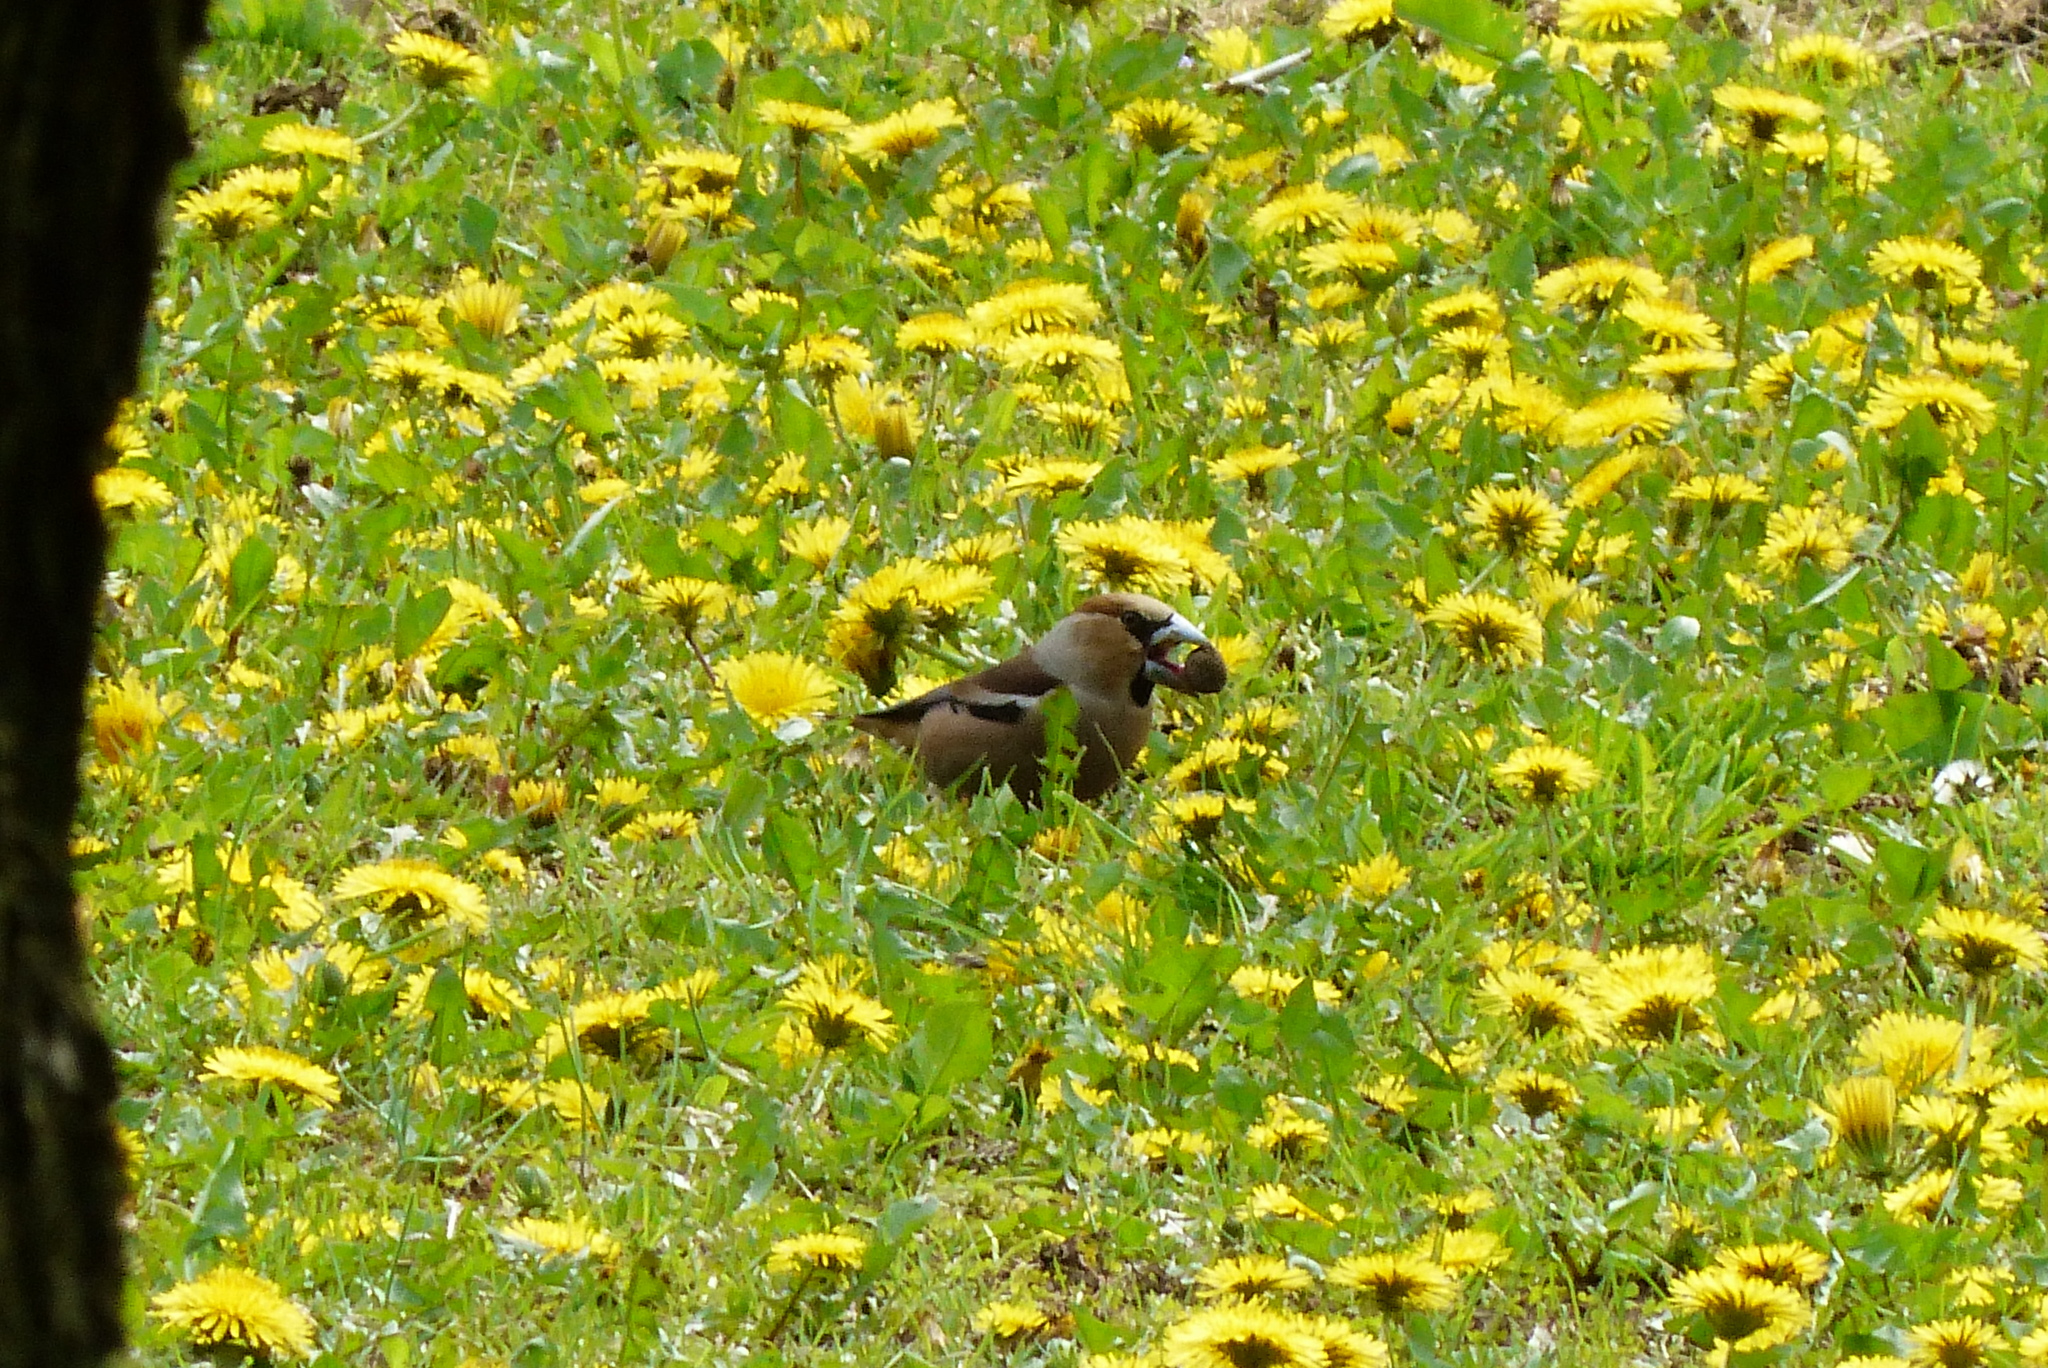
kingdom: Animalia
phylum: Chordata
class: Aves
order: Passeriformes
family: Fringillidae
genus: Coccothraustes
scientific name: Coccothraustes coccothraustes
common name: Hawfinch
